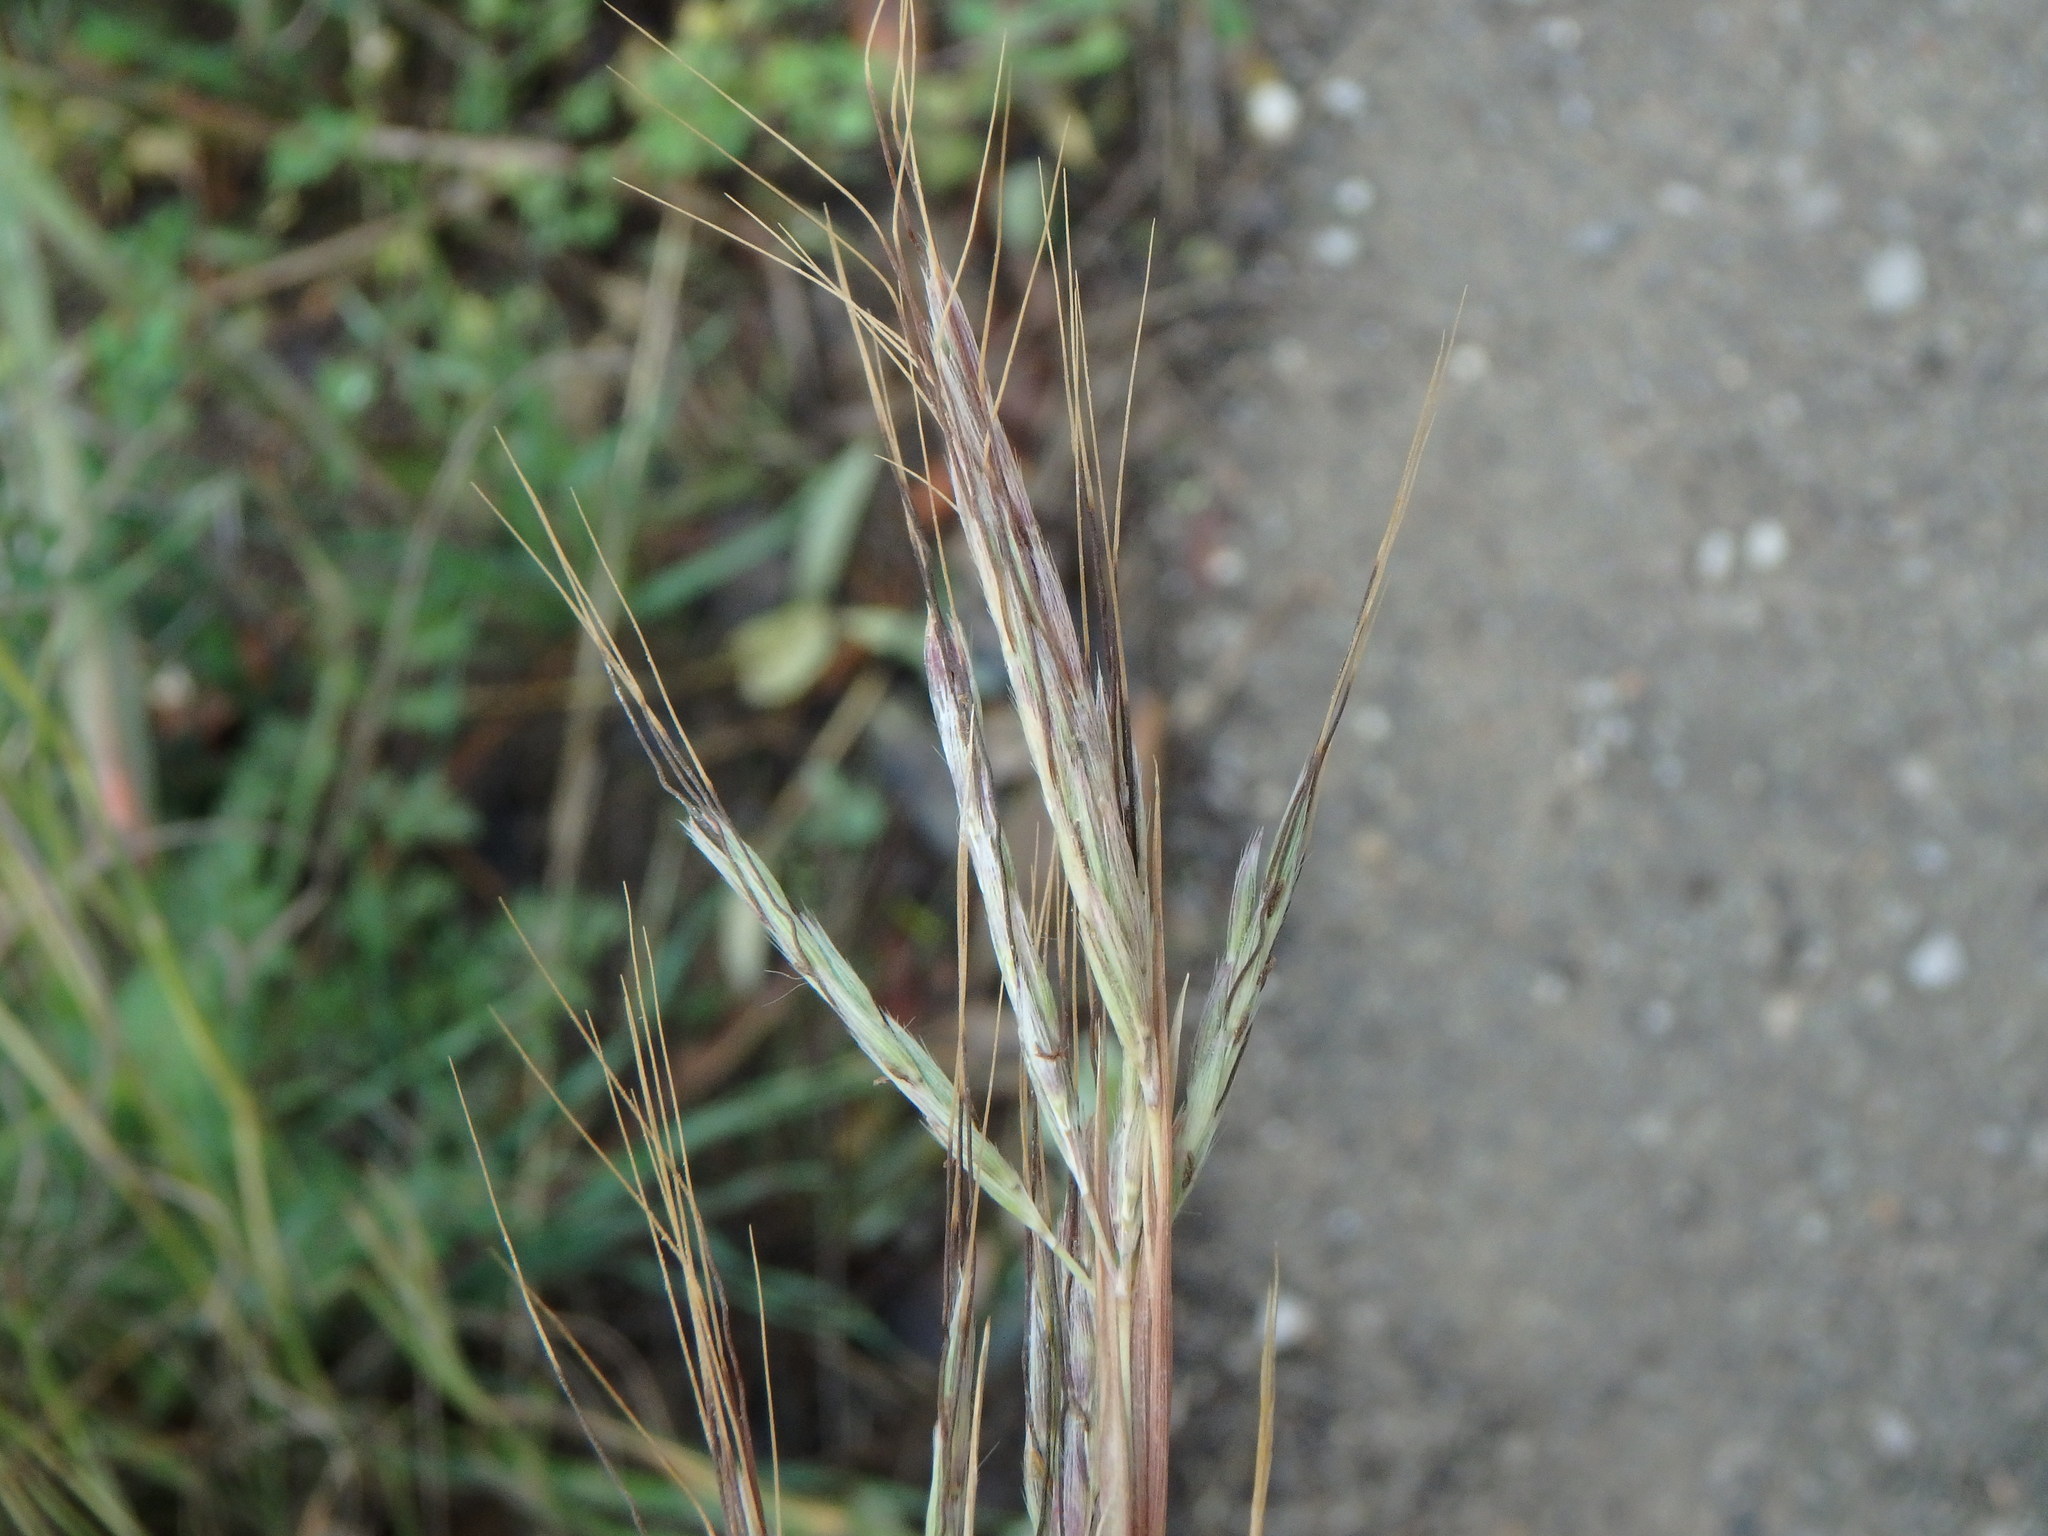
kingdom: Plantae
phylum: Tracheophyta
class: Liliopsida
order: Poales
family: Poaceae
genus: Hyparrhenia
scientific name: Hyparrhenia hirta
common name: Thatching grass
